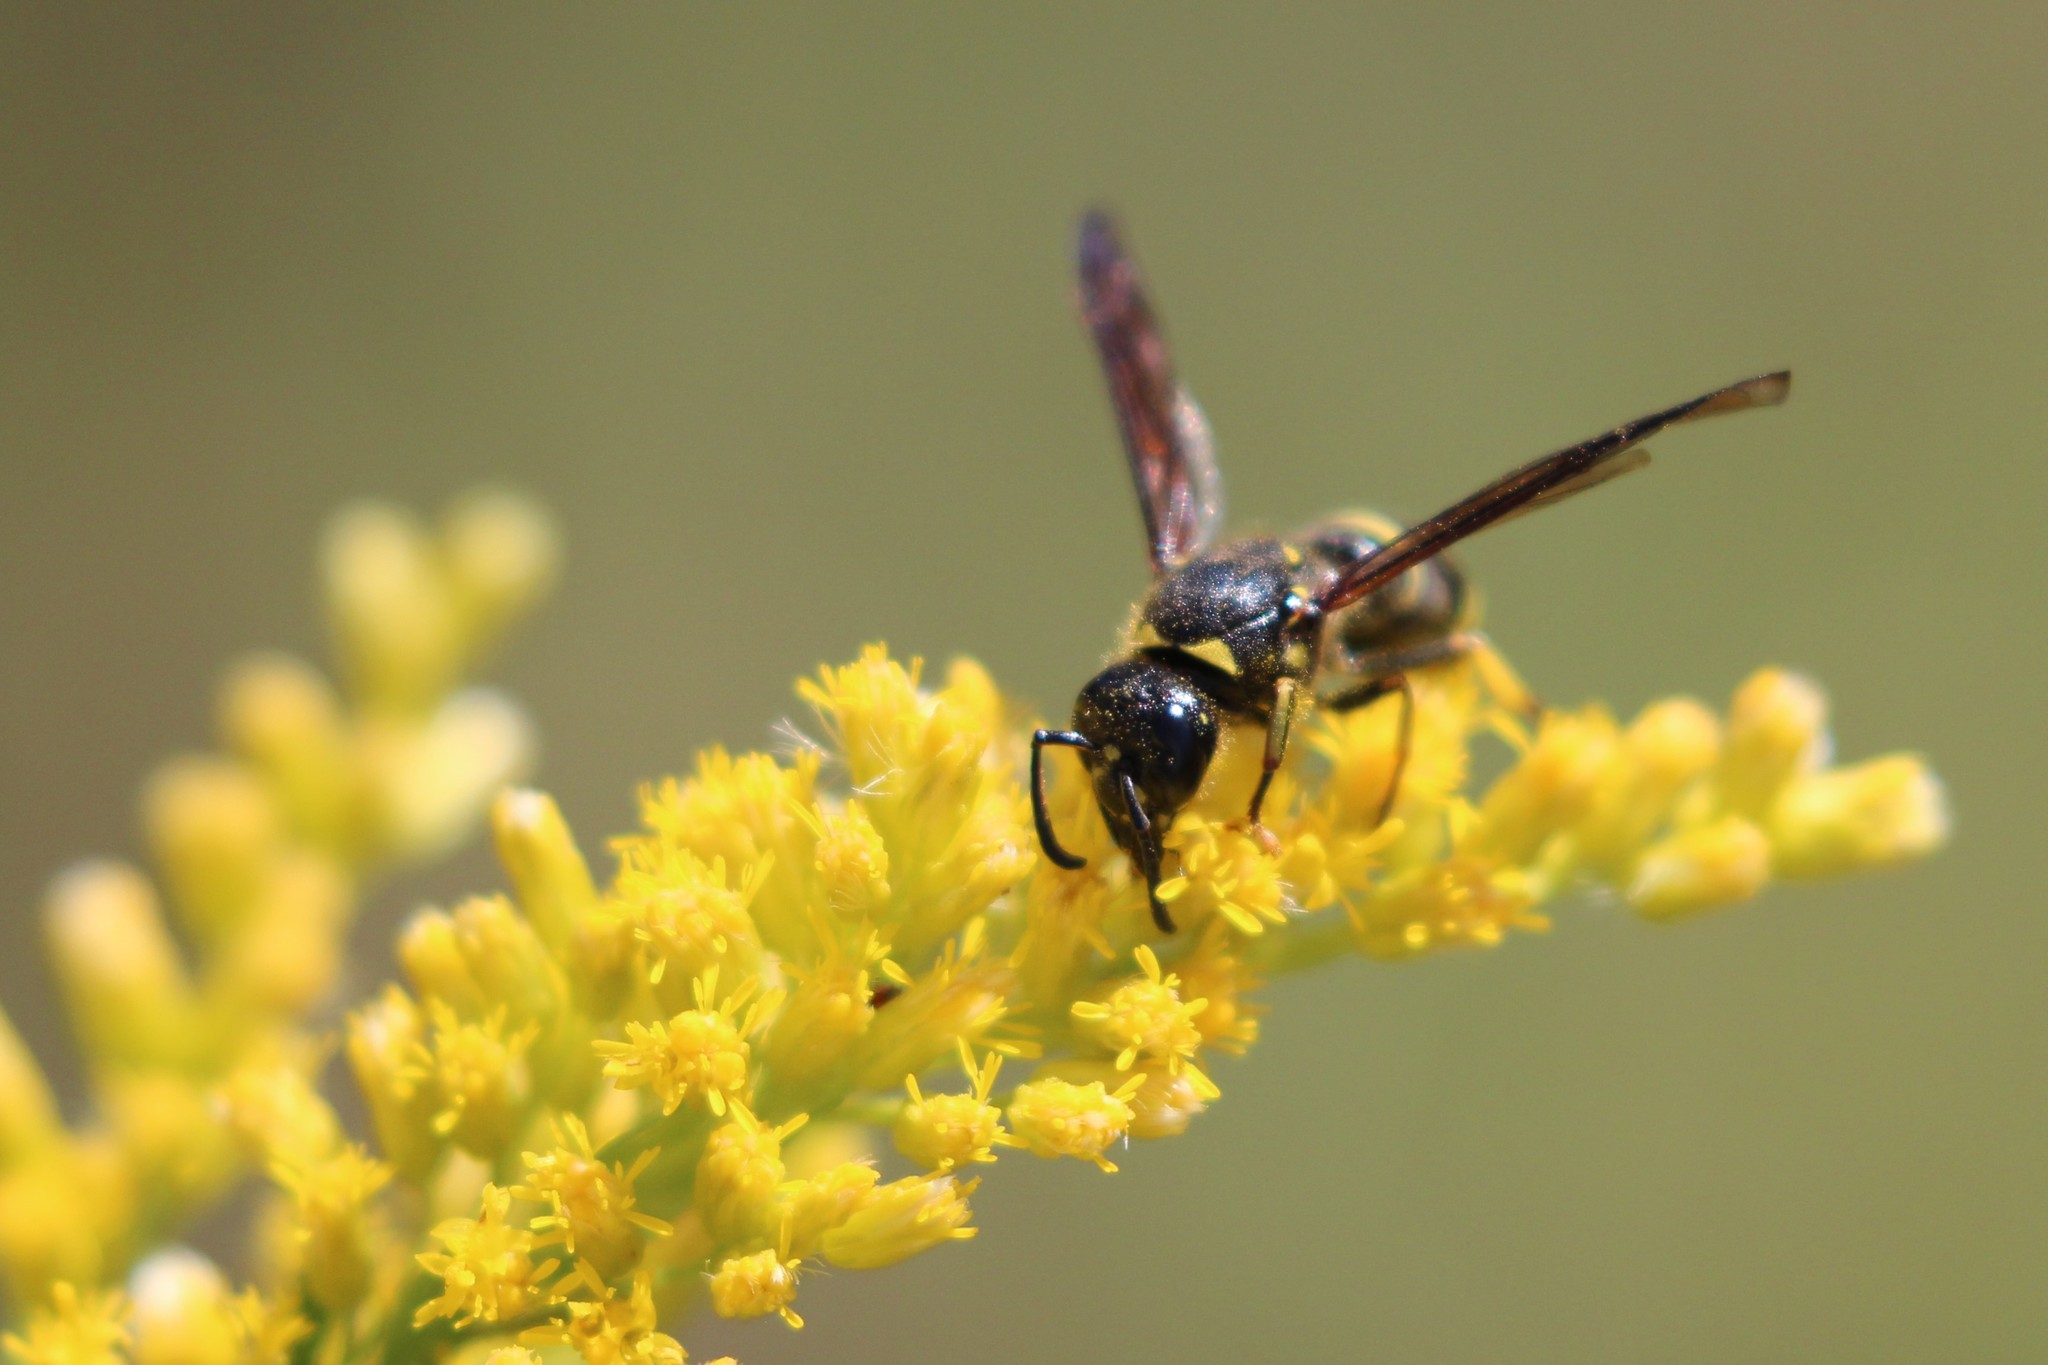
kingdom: Animalia
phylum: Arthropoda
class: Insecta
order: Hymenoptera
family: Vespidae
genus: Ancistrocerus
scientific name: Ancistrocerus
